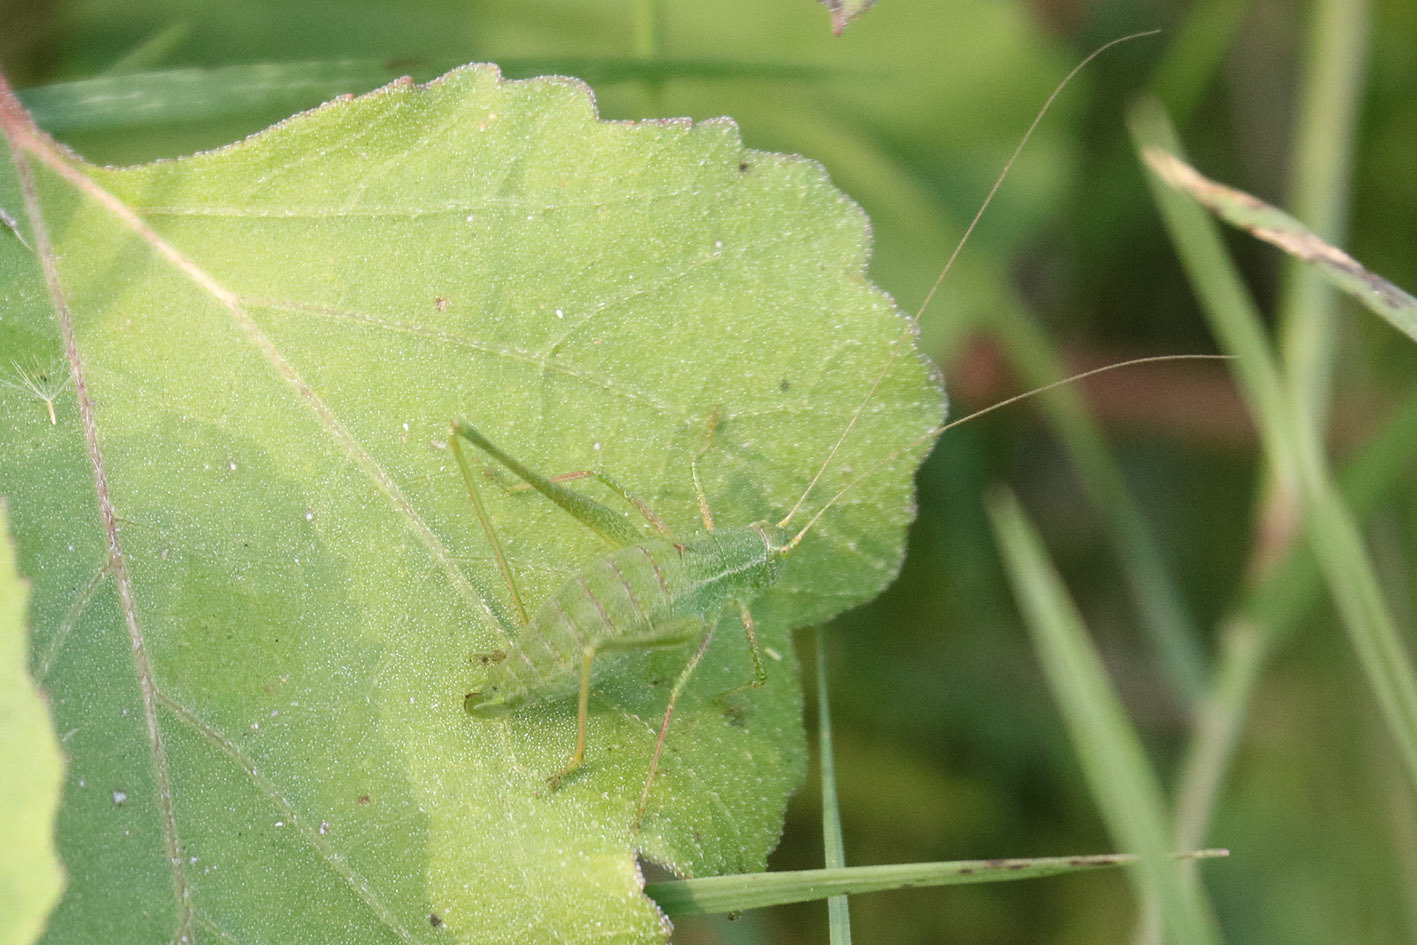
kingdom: Animalia
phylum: Arthropoda
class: Insecta
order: Orthoptera
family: Tettigoniidae
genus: Anisophya
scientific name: Anisophya punctinervis
